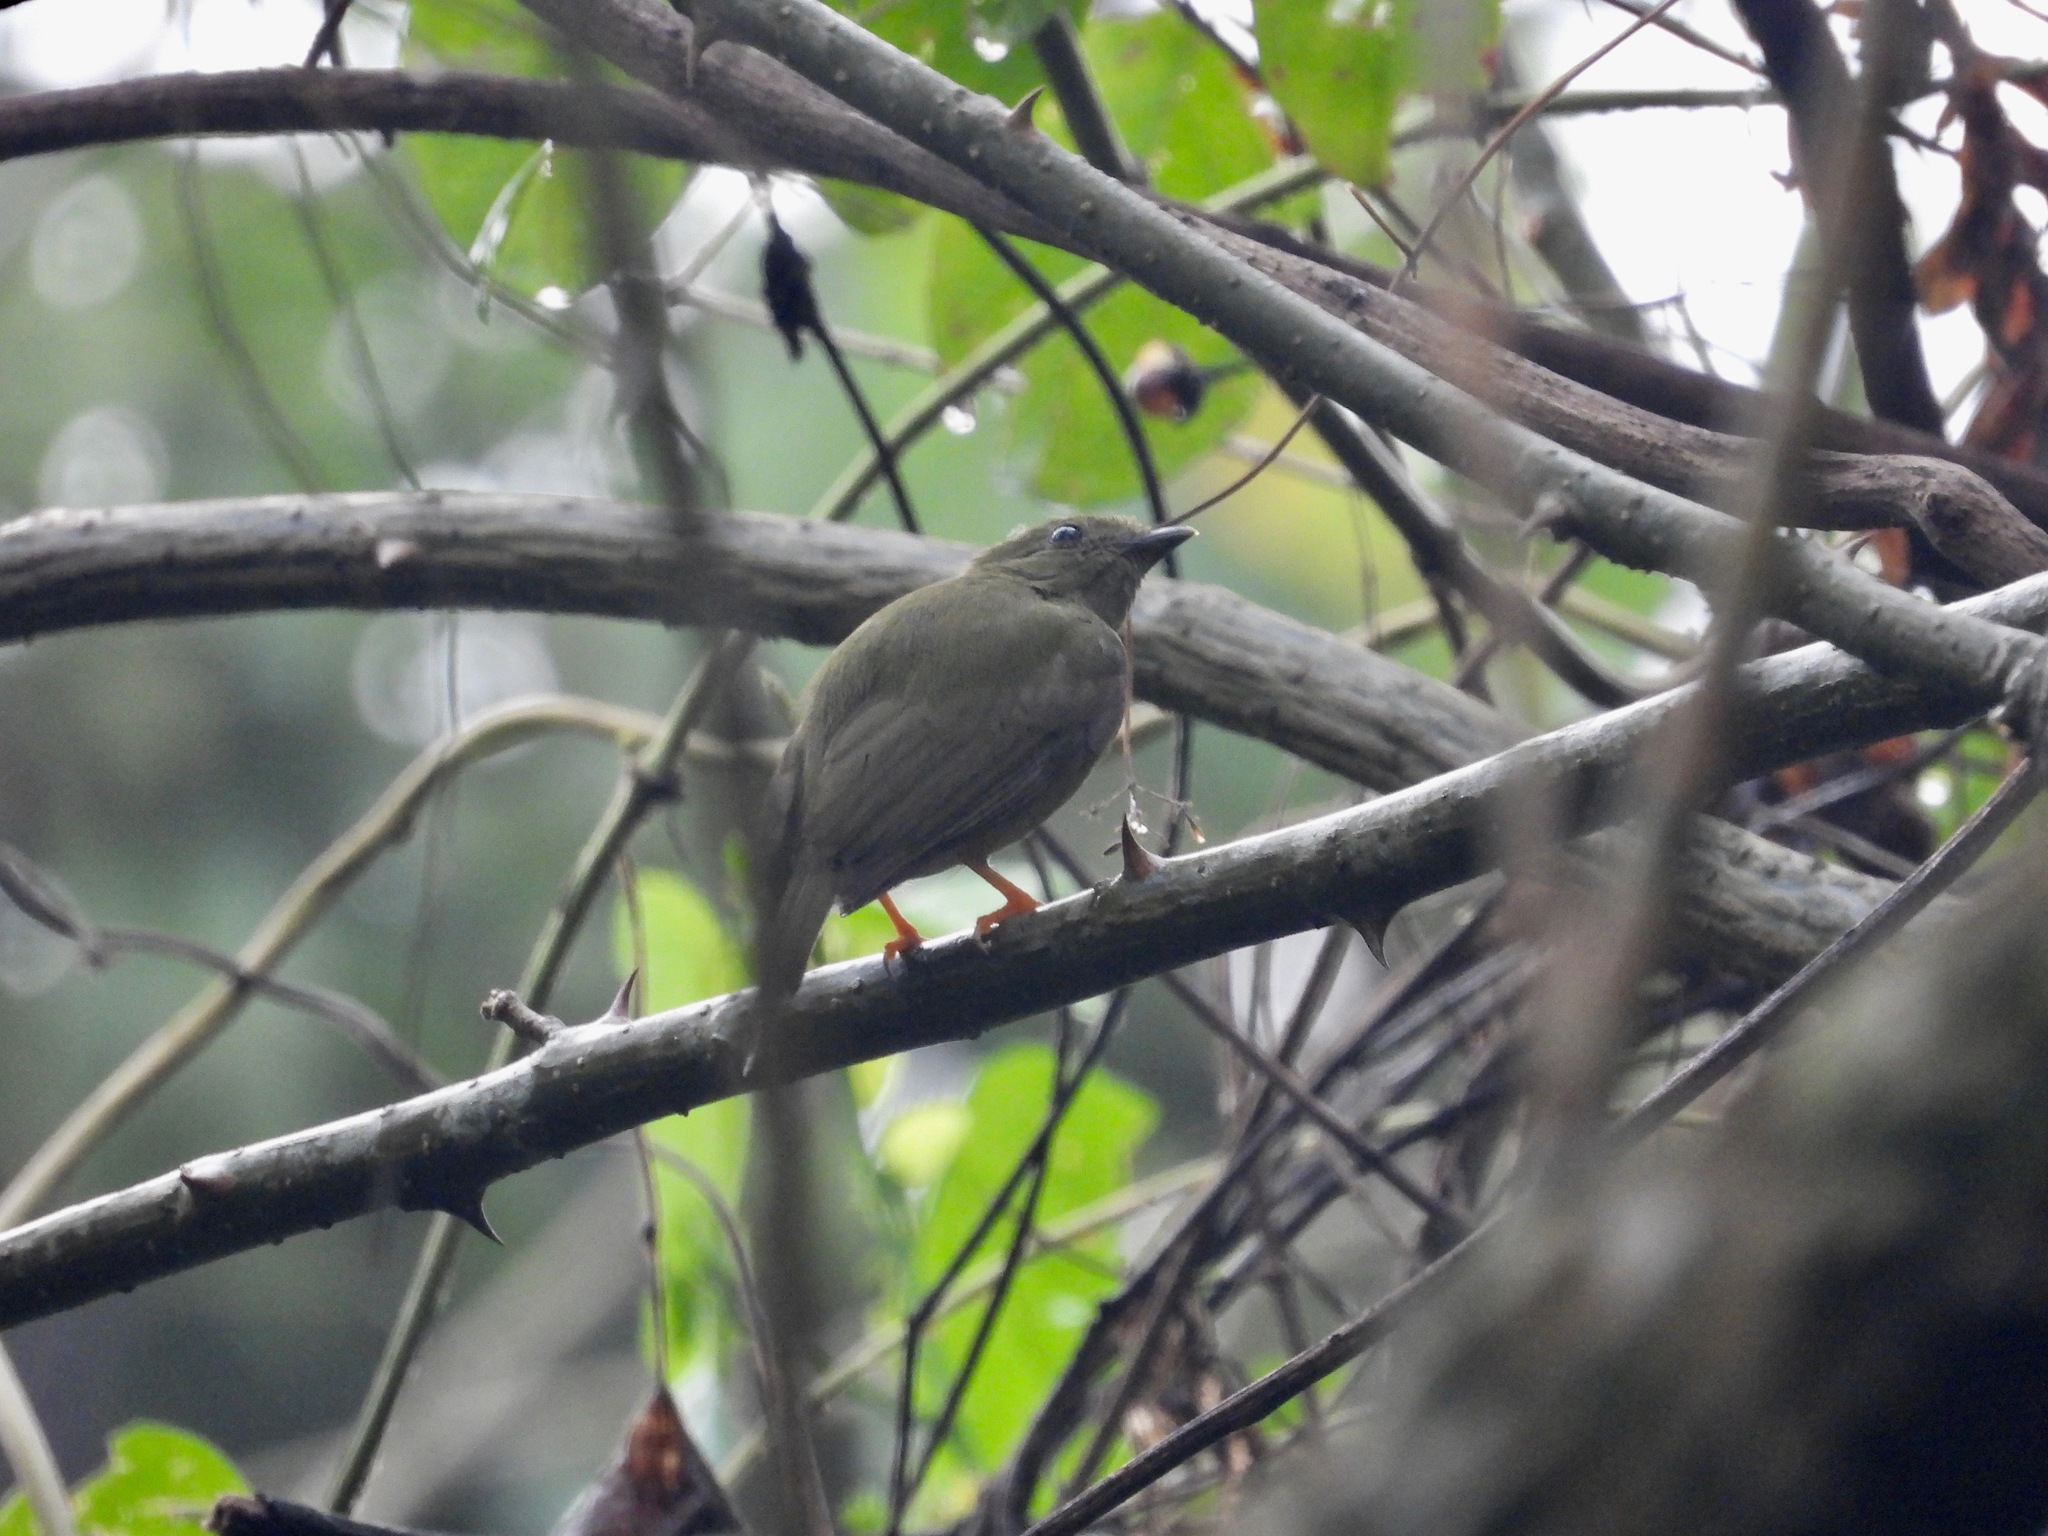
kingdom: Animalia
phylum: Chordata
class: Aves
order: Passeriformes
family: Pipridae
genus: Chiroxiphia
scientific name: Chiroxiphia linearis
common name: Long-tailed manakin
